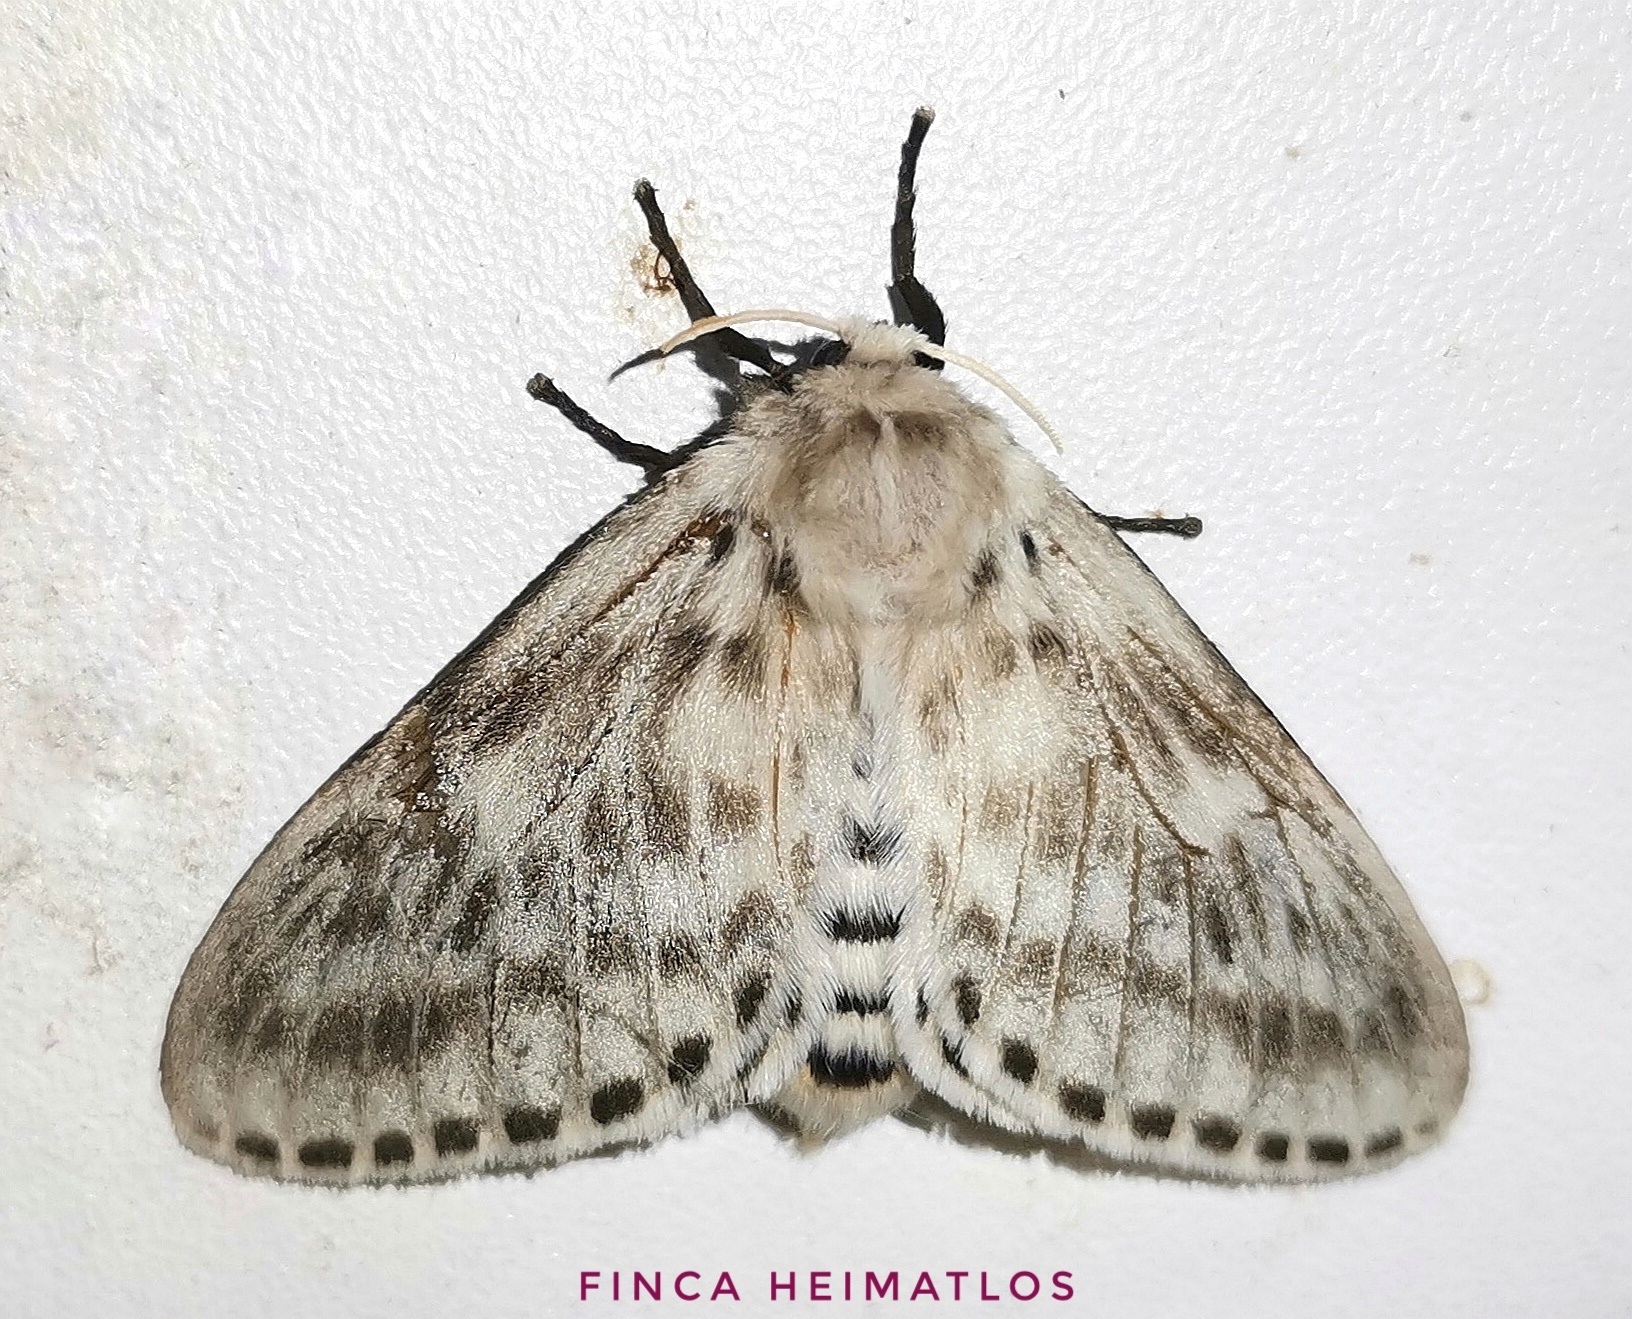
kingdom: Animalia
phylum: Arthropoda
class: Insecta
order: Lepidoptera
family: Megalopygidae
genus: Podalia
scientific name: Podalia gamelia
